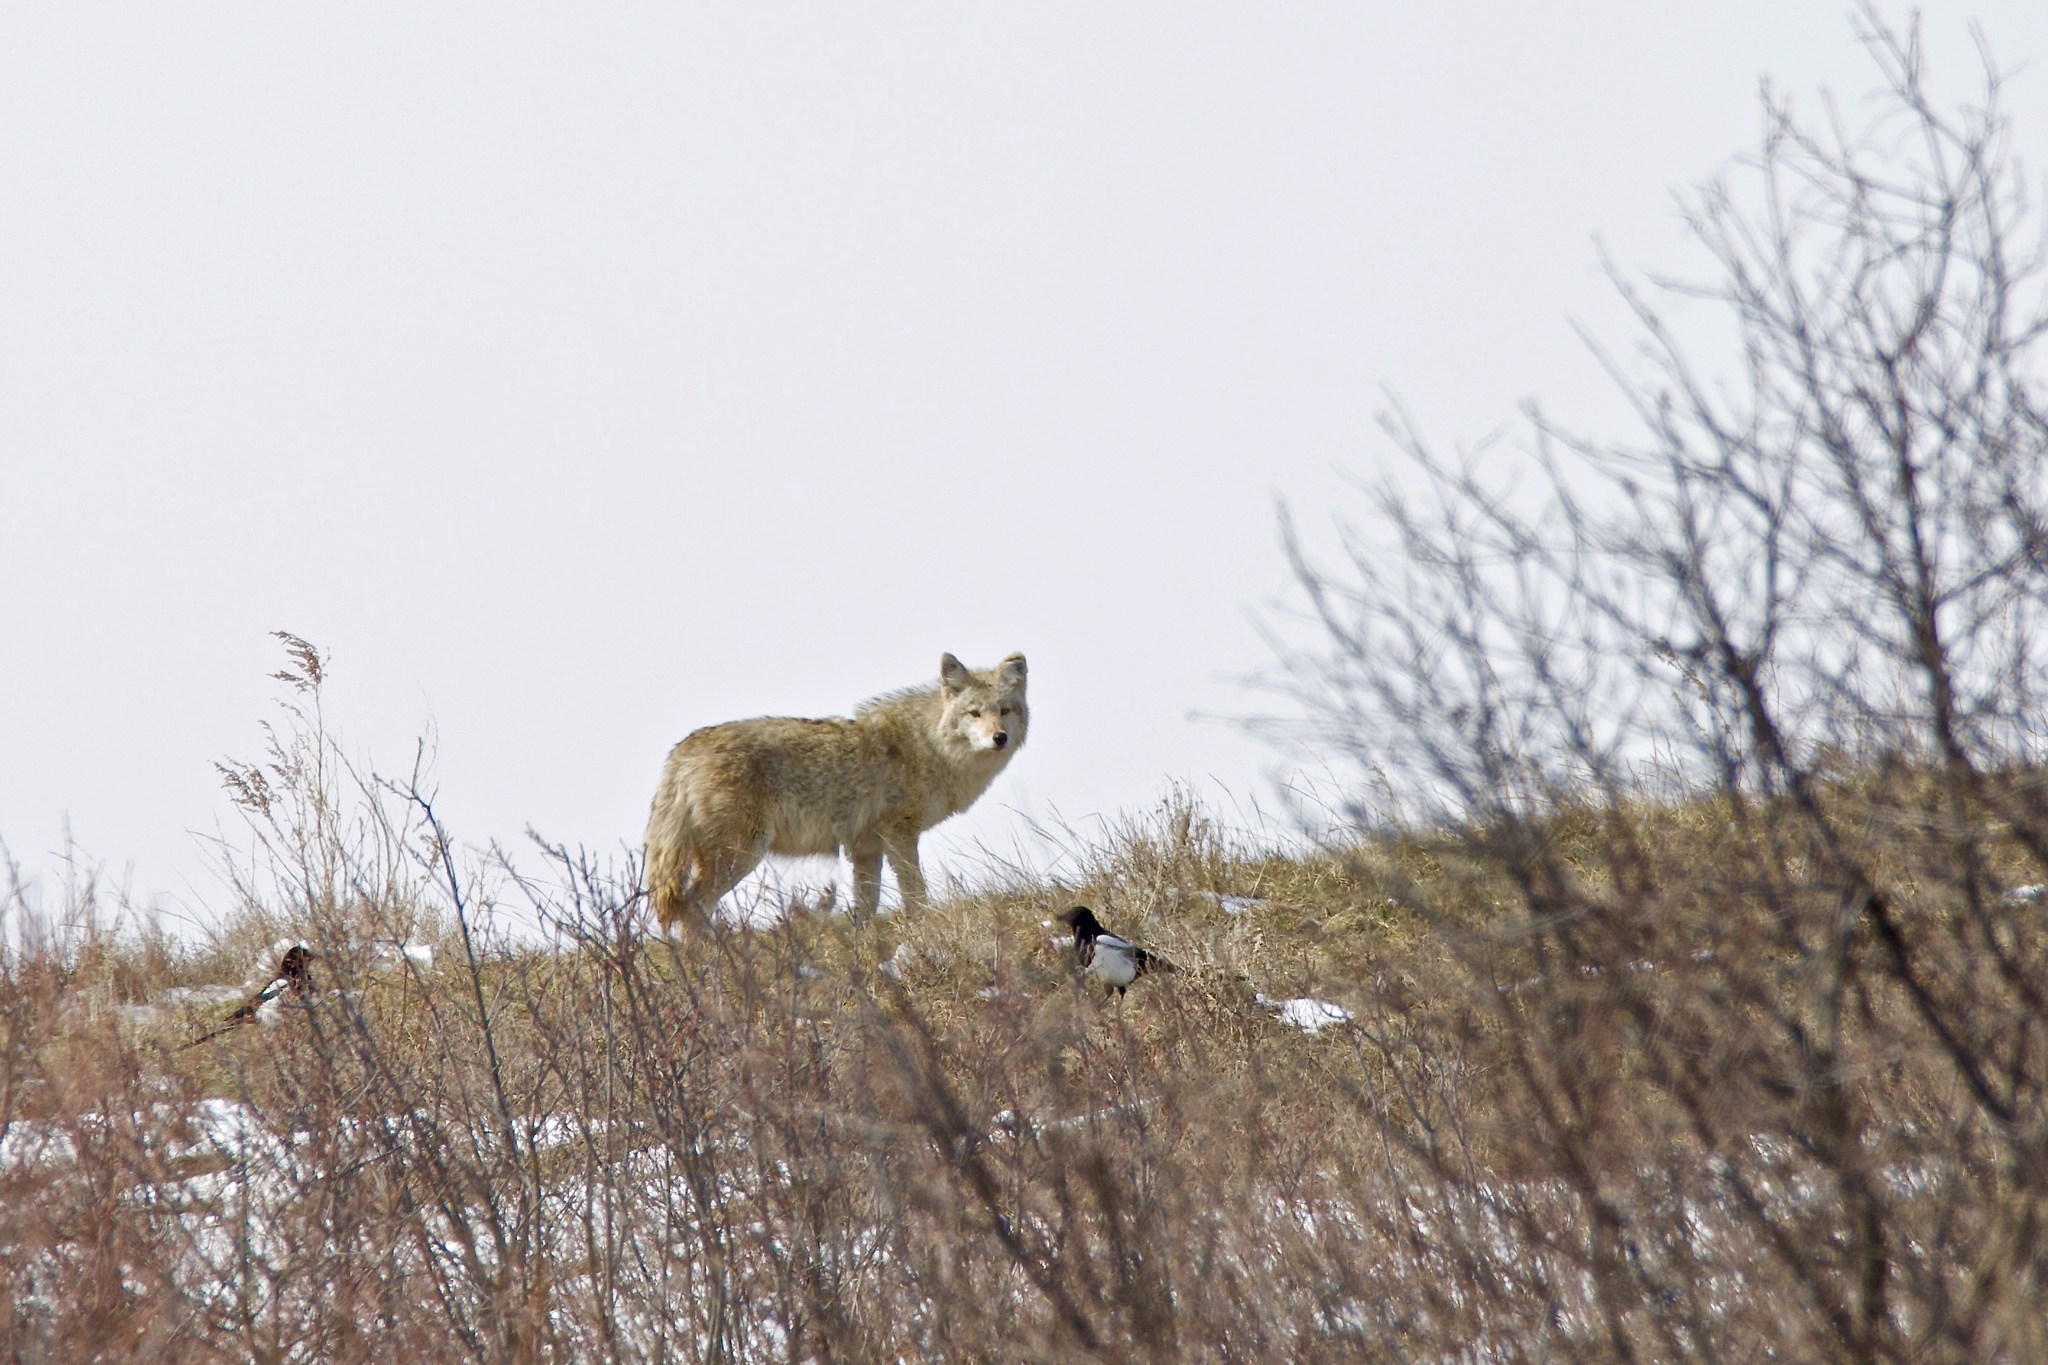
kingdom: Animalia
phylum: Chordata
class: Mammalia
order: Carnivora
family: Canidae
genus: Canis
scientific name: Canis latrans
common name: Coyote
